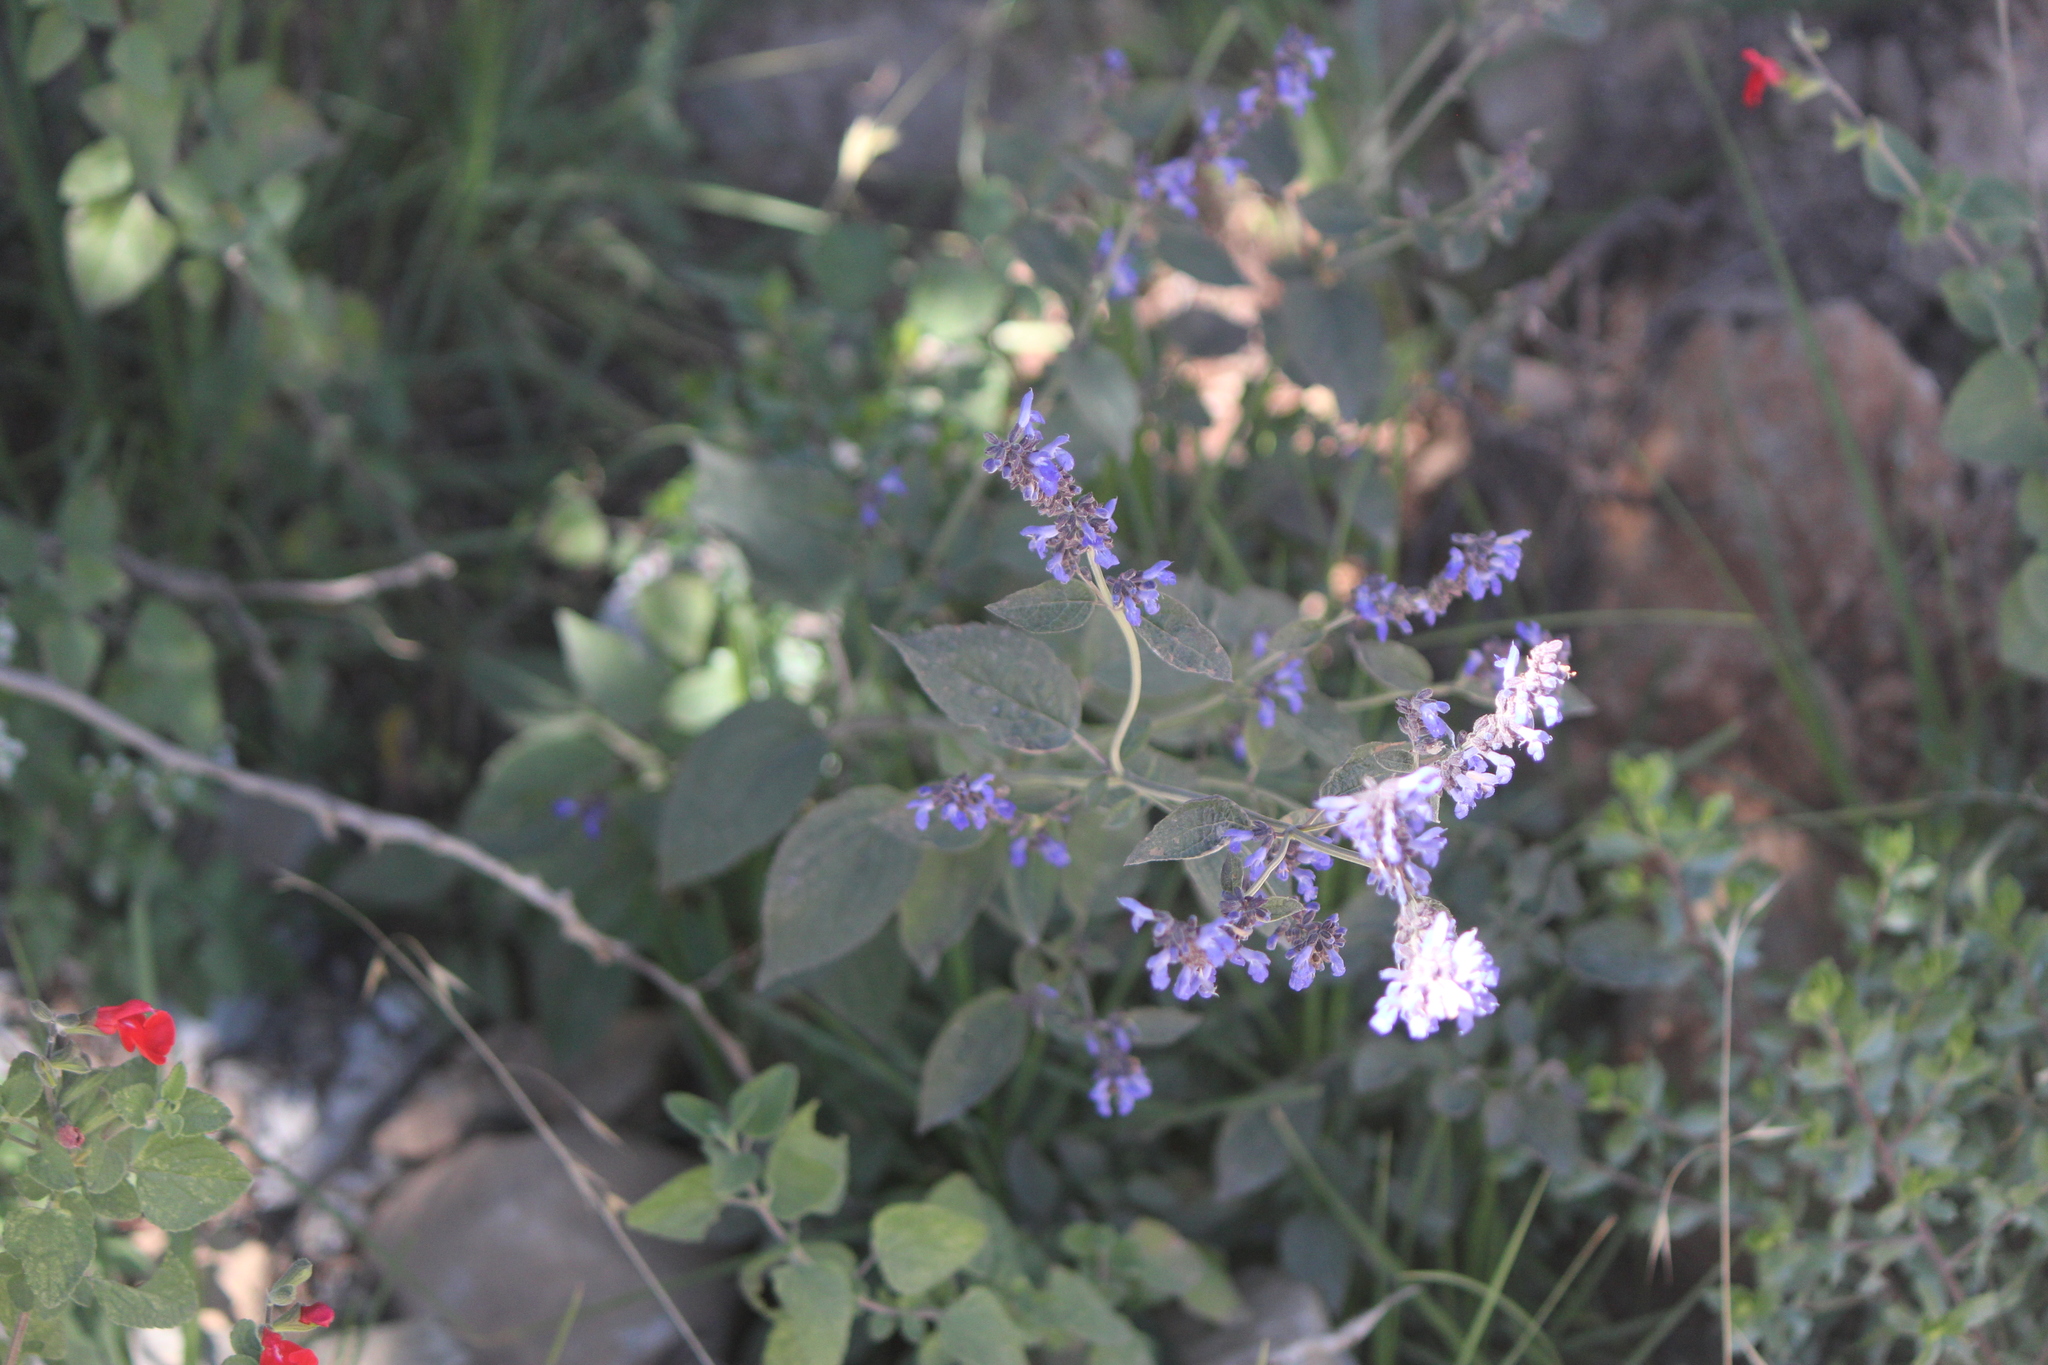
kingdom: Plantae
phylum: Tracheophyta
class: Magnoliopsida
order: Lamiales
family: Lamiaceae
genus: Salvia
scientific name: Salvia polystachia
